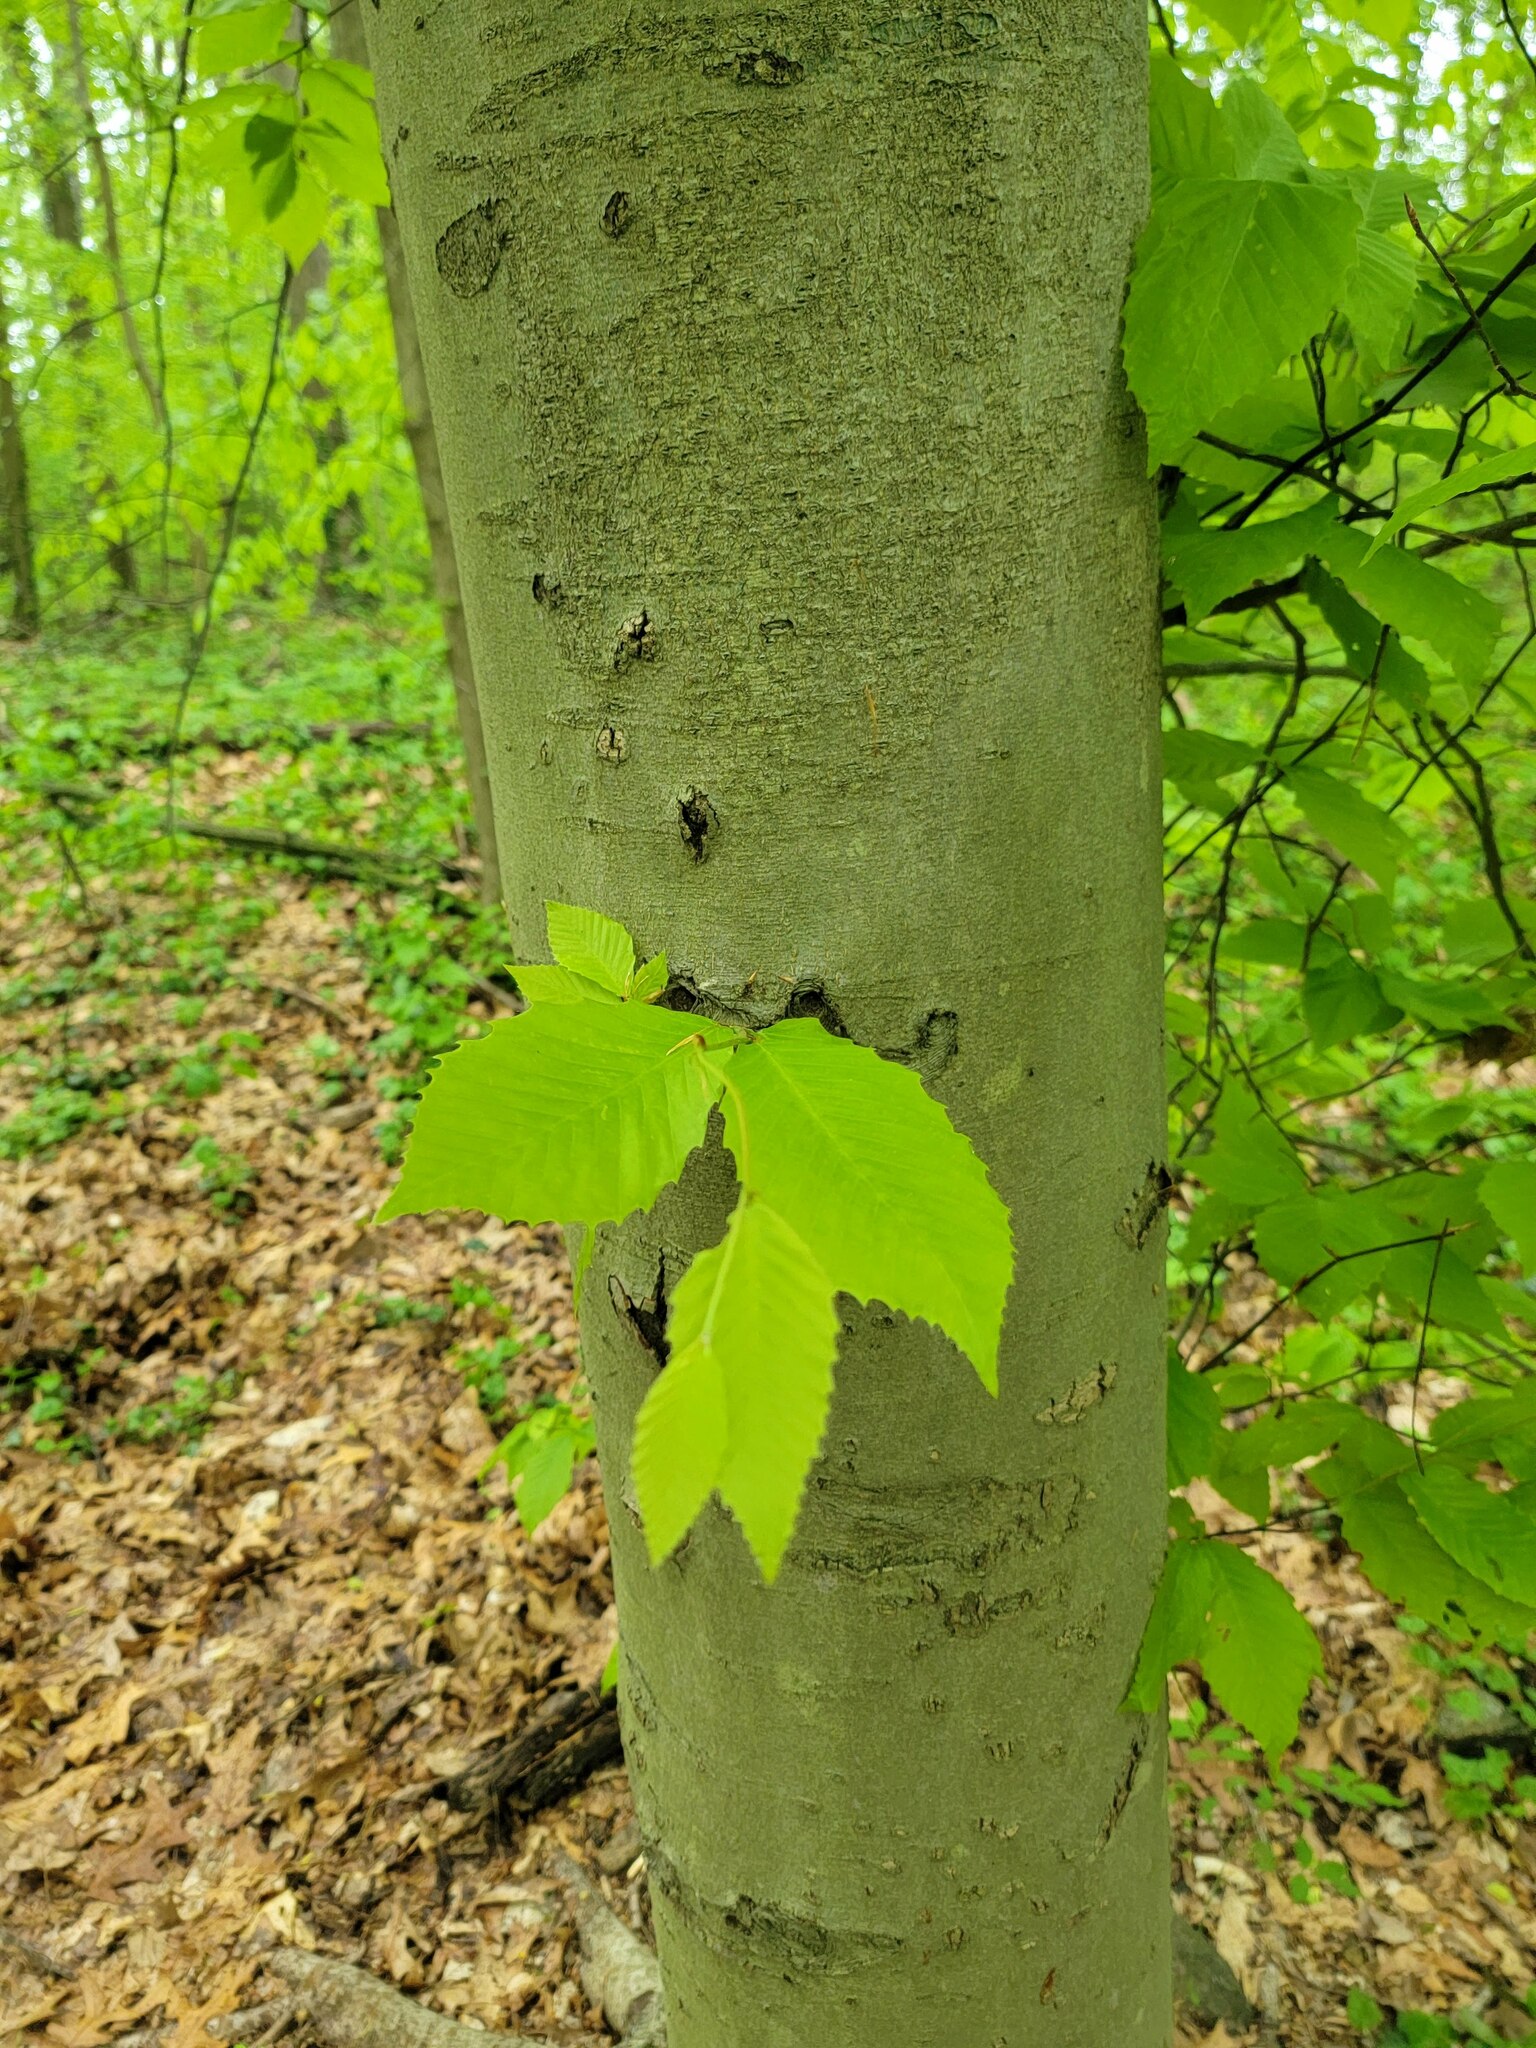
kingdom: Plantae
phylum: Tracheophyta
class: Magnoliopsida
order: Fagales
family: Fagaceae
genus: Fagus
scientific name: Fagus grandifolia
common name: American beech
